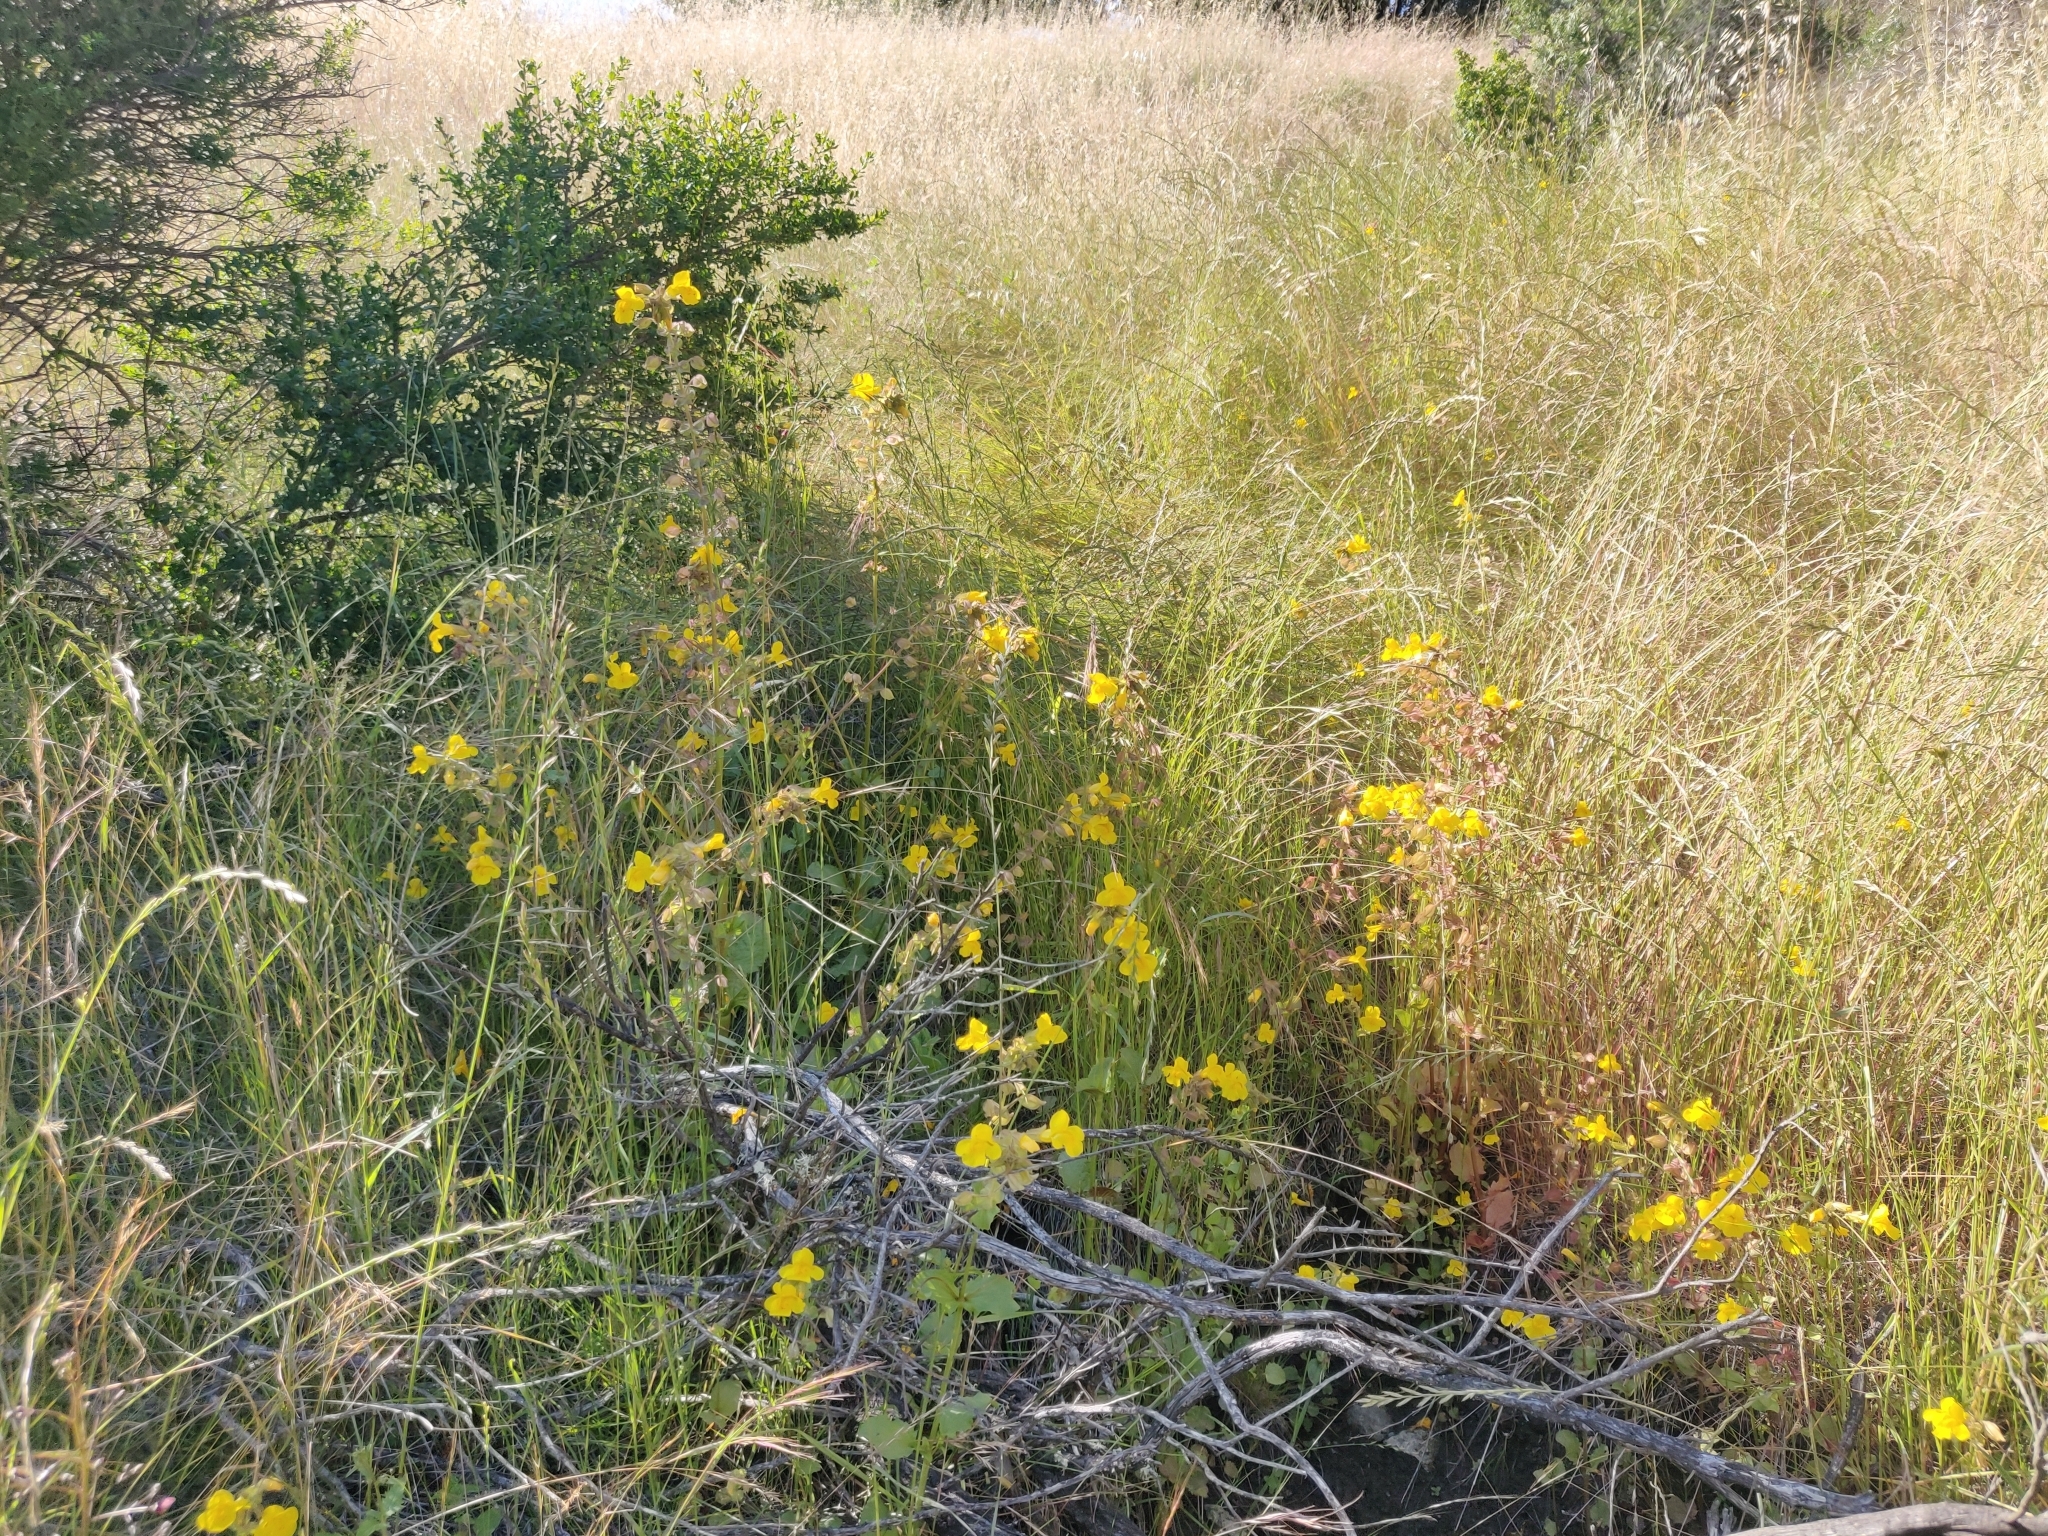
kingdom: Plantae
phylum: Tracheophyta
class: Magnoliopsida
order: Lamiales
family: Phrymaceae
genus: Erythranthe
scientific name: Erythranthe guttata
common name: Monkeyflower
